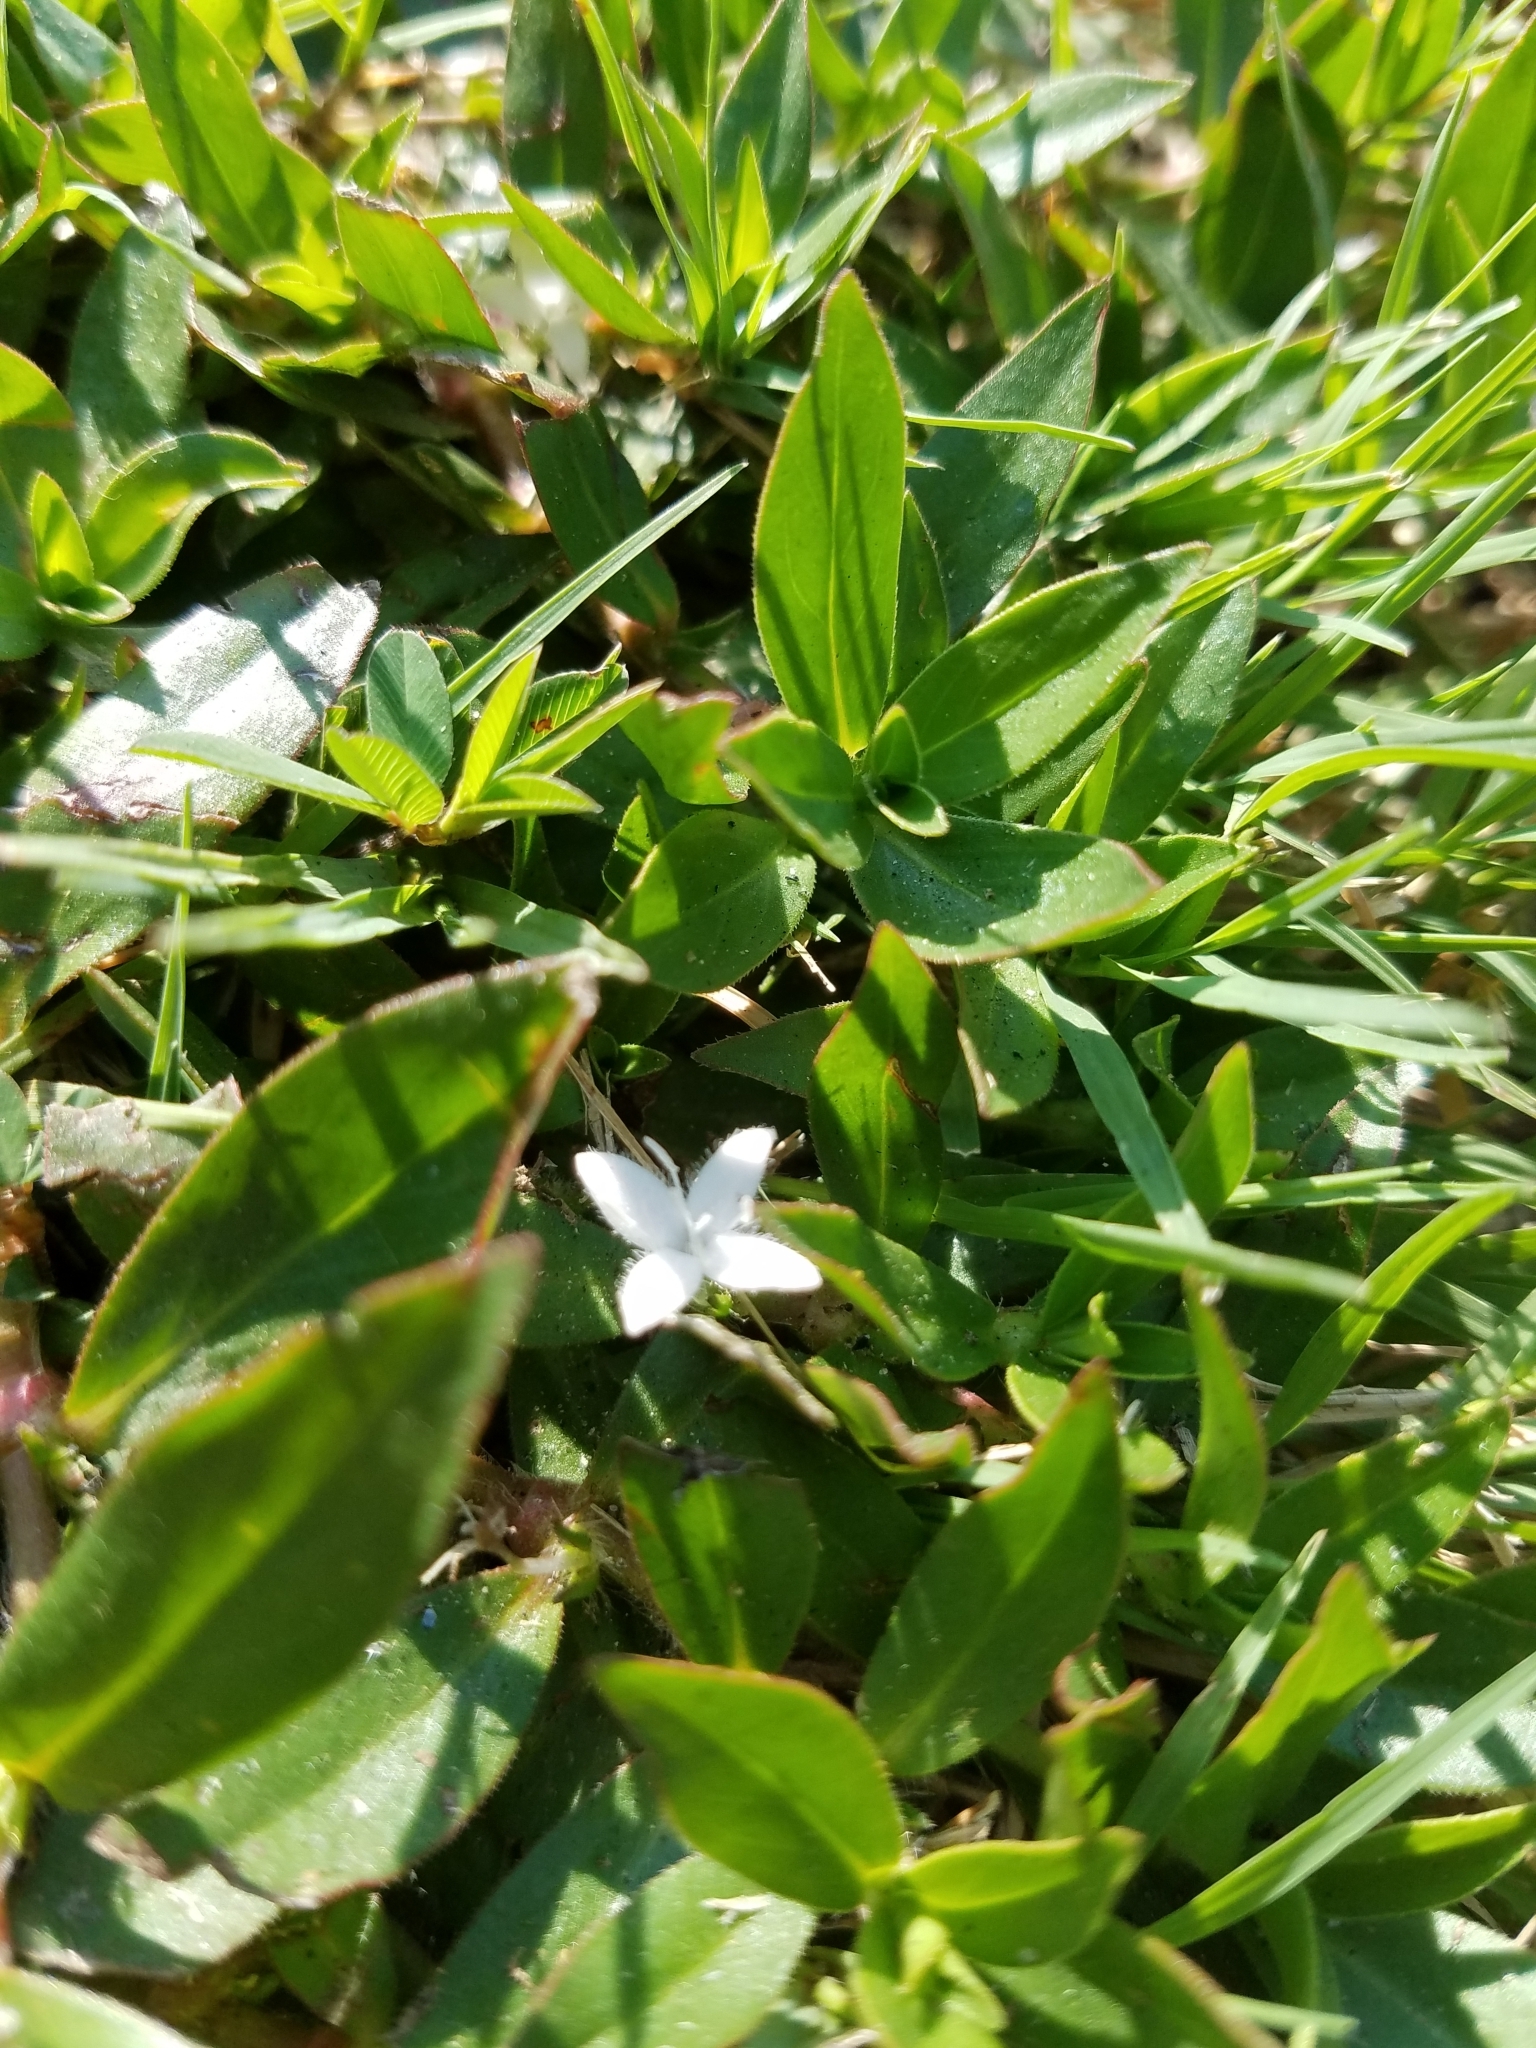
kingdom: Plantae
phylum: Tracheophyta
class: Magnoliopsida
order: Gentianales
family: Rubiaceae
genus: Diodia
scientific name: Diodia virginiana
